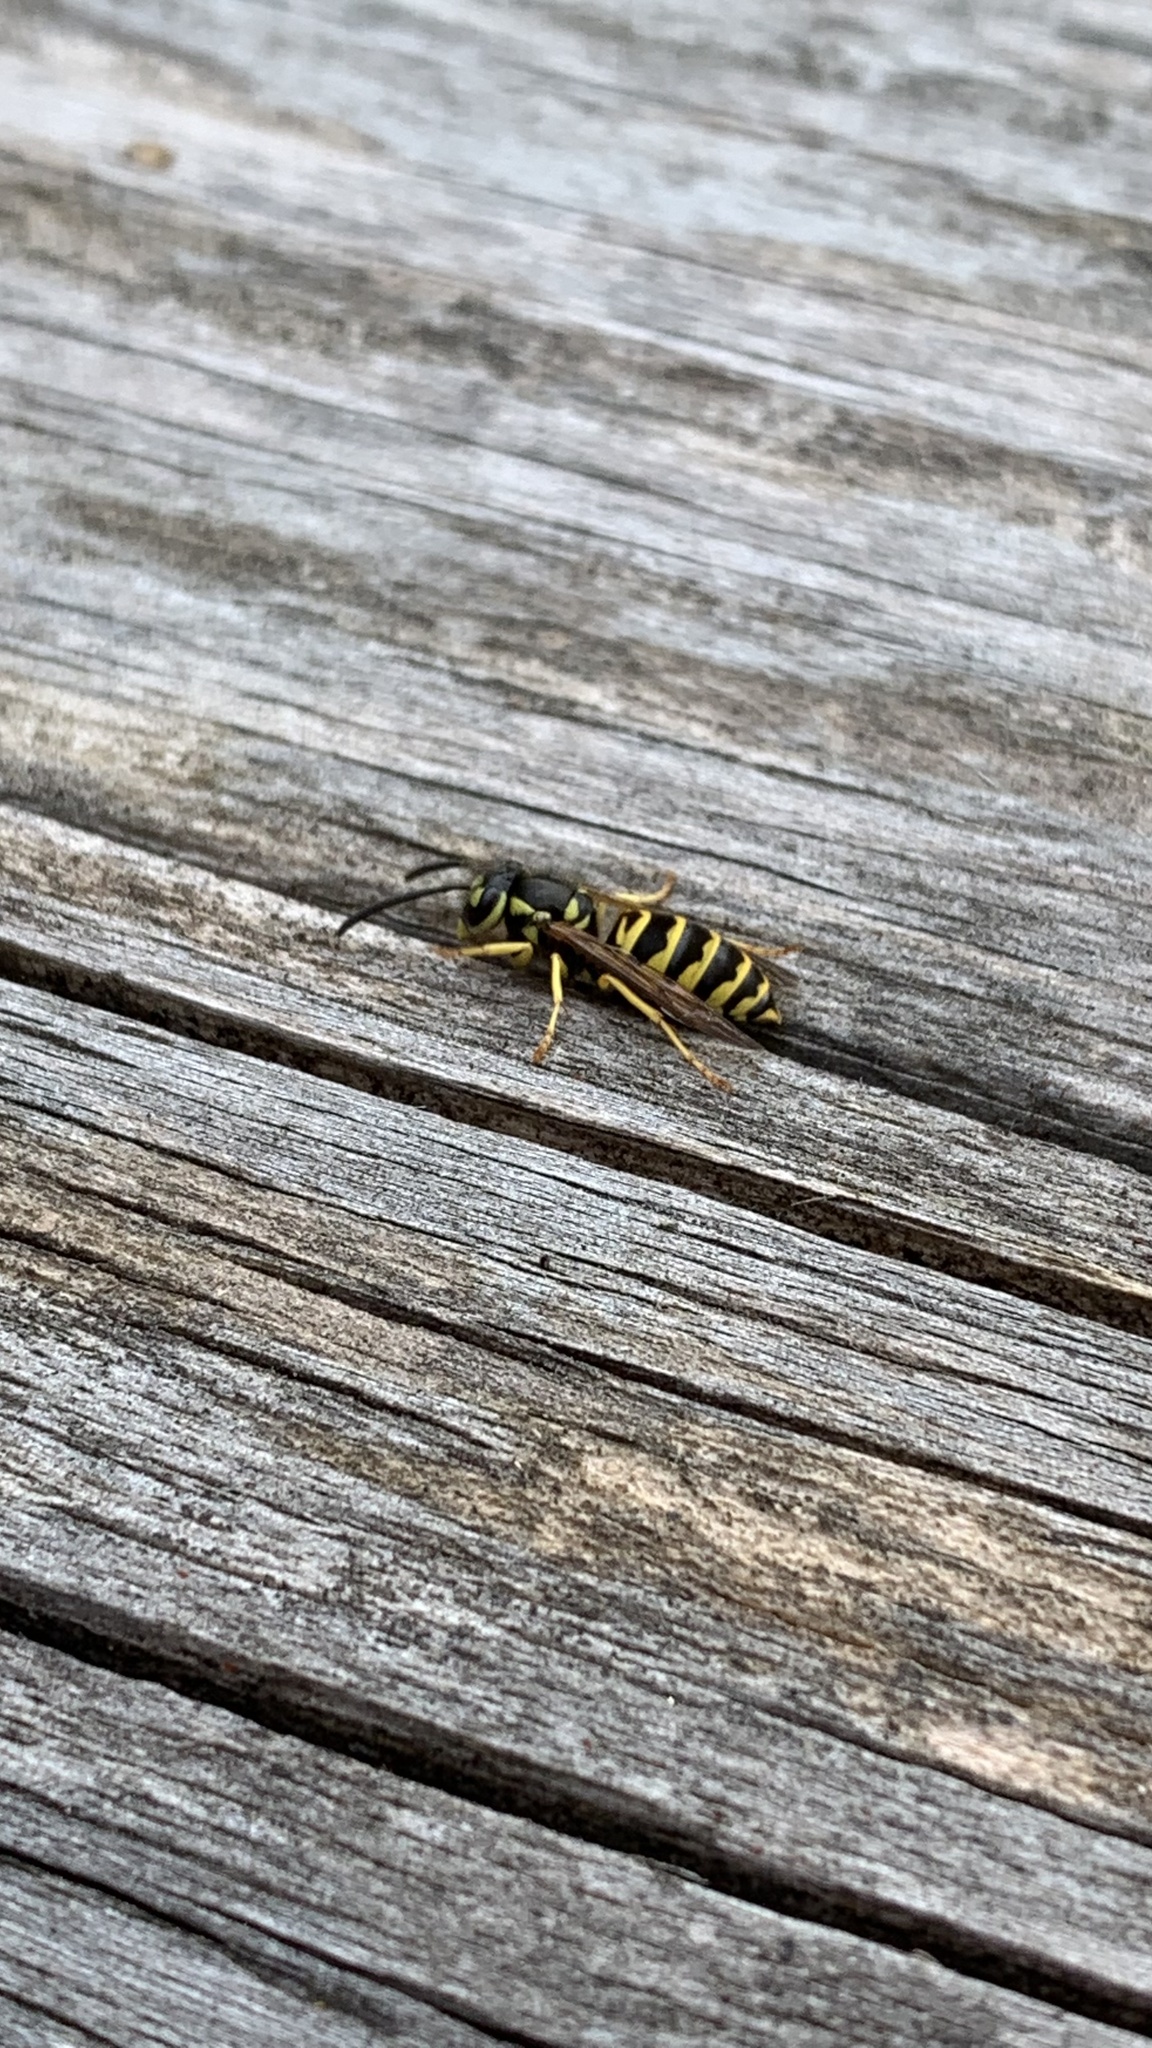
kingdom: Animalia
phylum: Arthropoda
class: Insecta
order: Hymenoptera
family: Vespidae
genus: Vespula
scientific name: Vespula maculifrons
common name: Eastern yellowjacket
